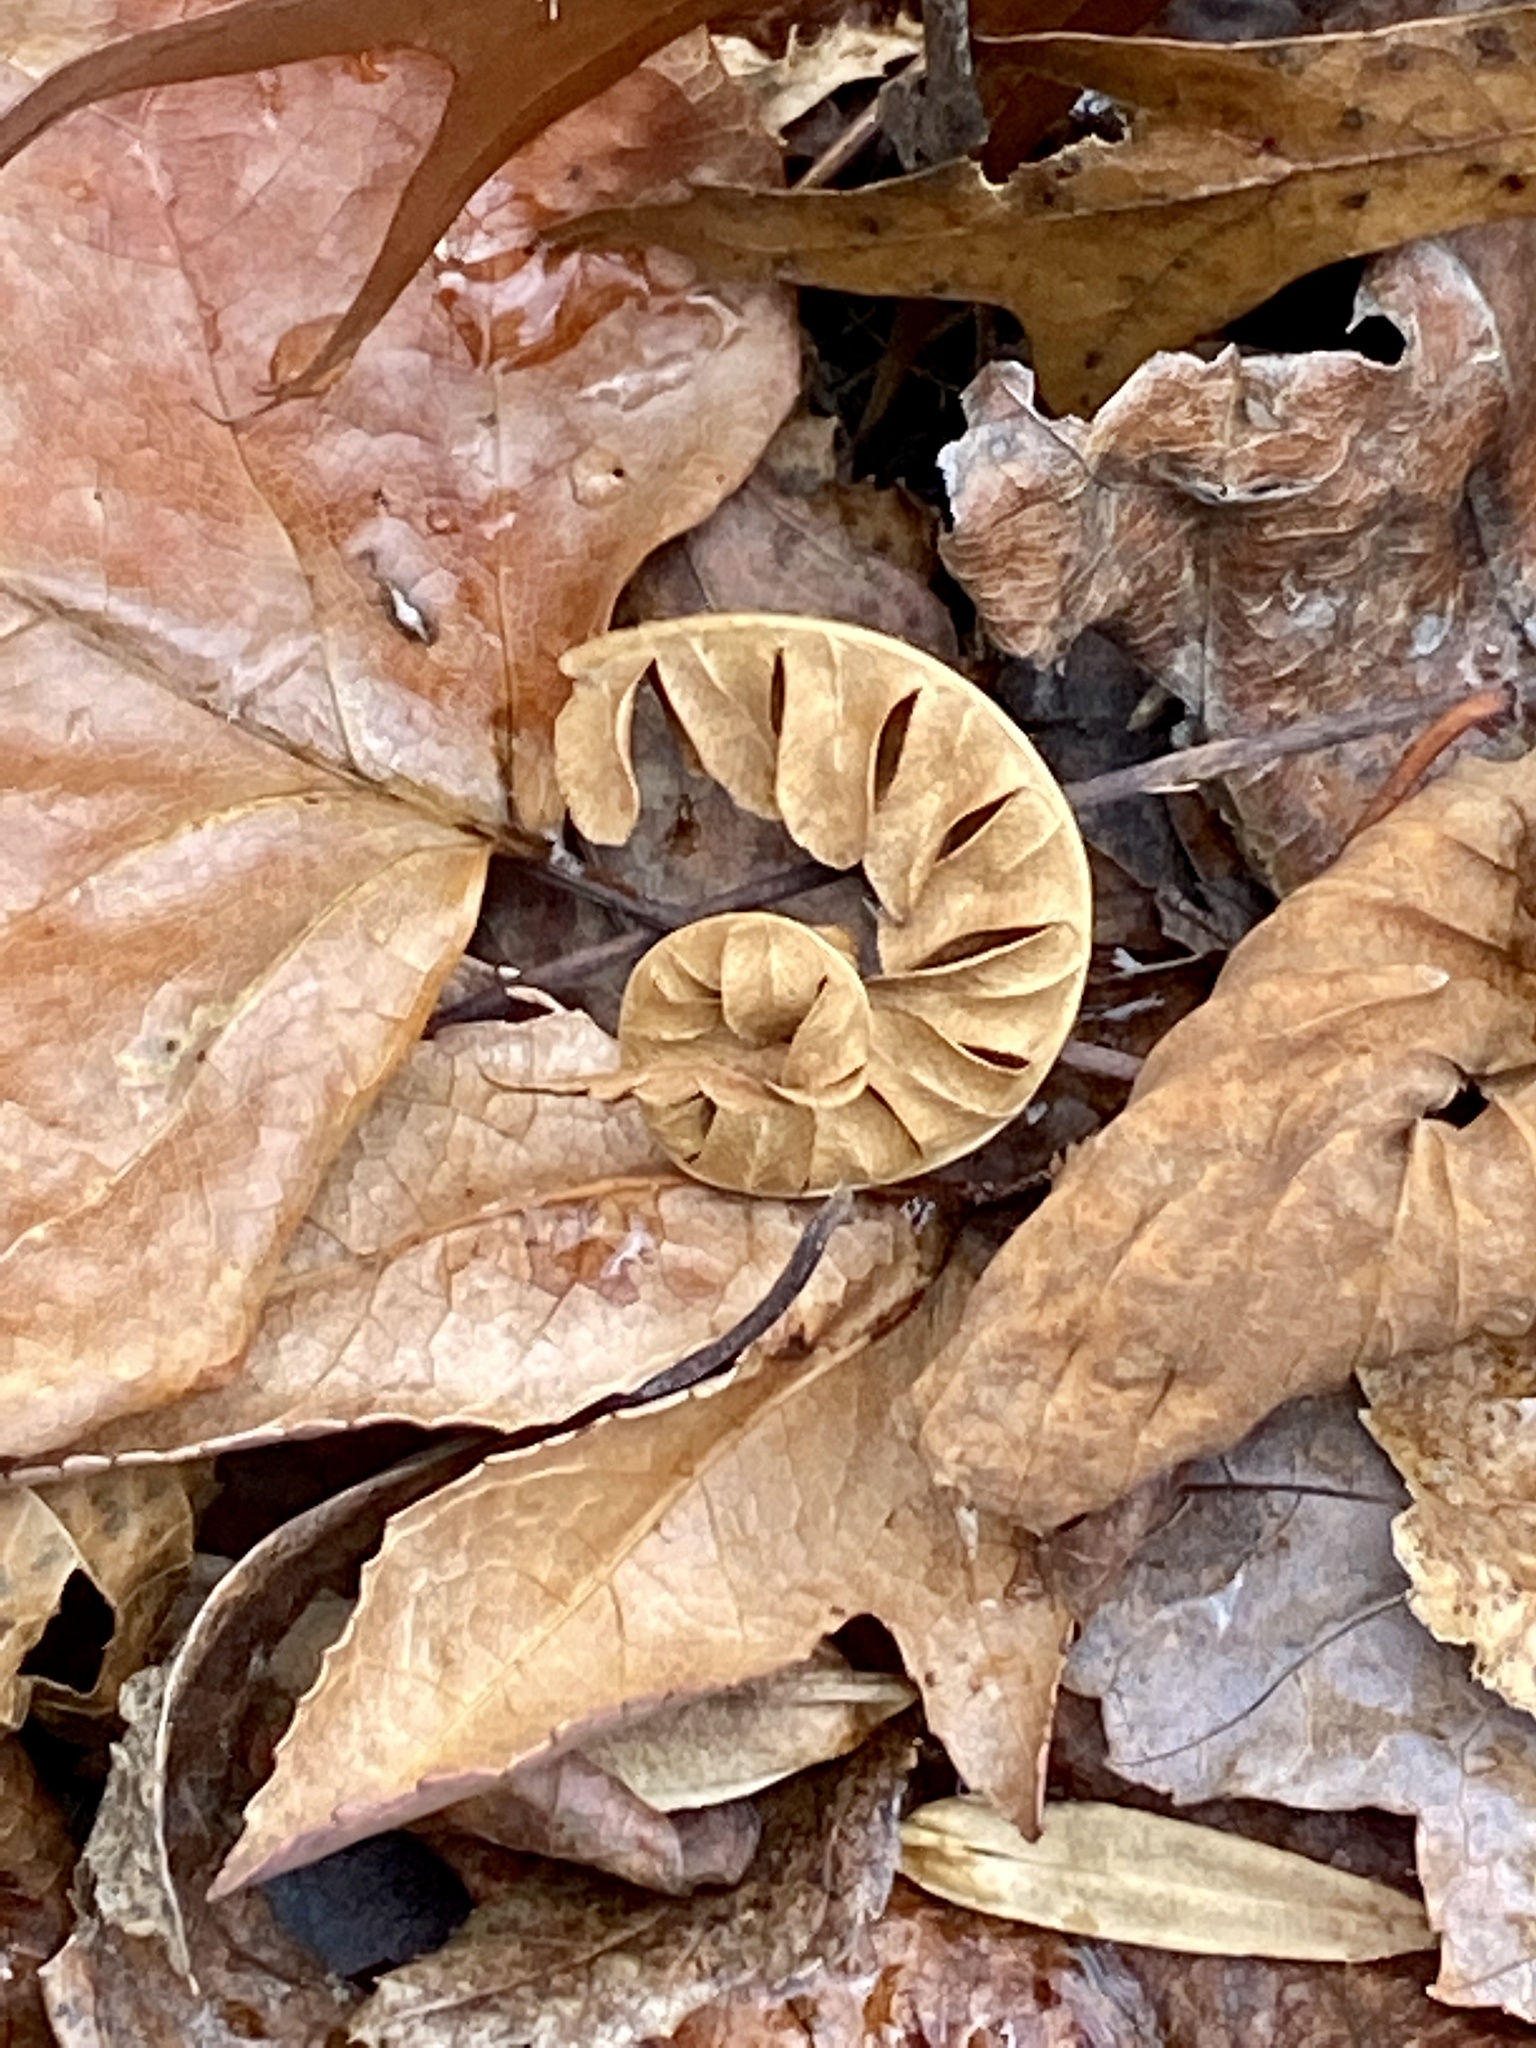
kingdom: Plantae
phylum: Tracheophyta
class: Polypodiopsida
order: Polypodiales
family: Dennstaedtiaceae
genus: Pteridium
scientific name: Pteridium aquilinum
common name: Bracken
